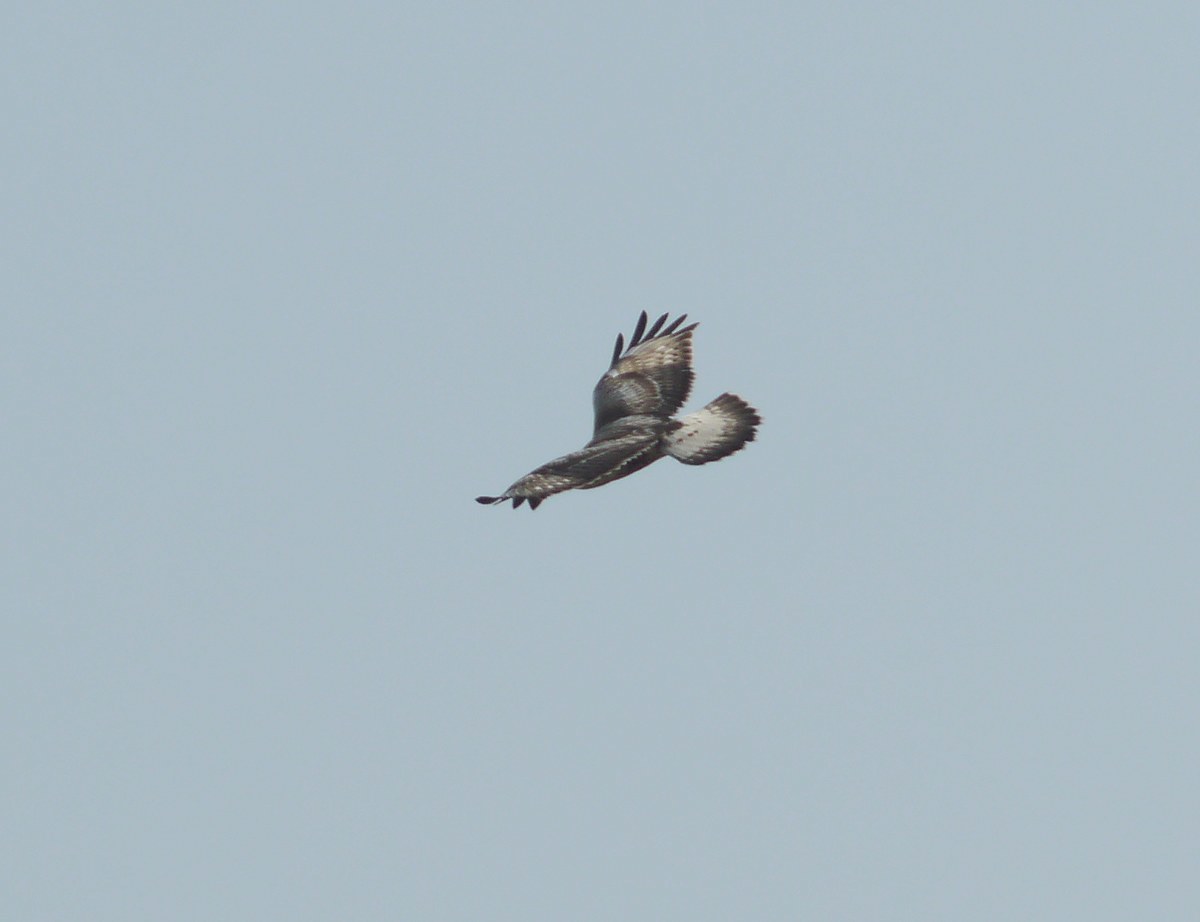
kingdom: Animalia
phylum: Chordata
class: Aves
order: Accipitriformes
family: Accipitridae
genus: Buteo
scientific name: Buteo lagopus
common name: Rough-legged buzzard
